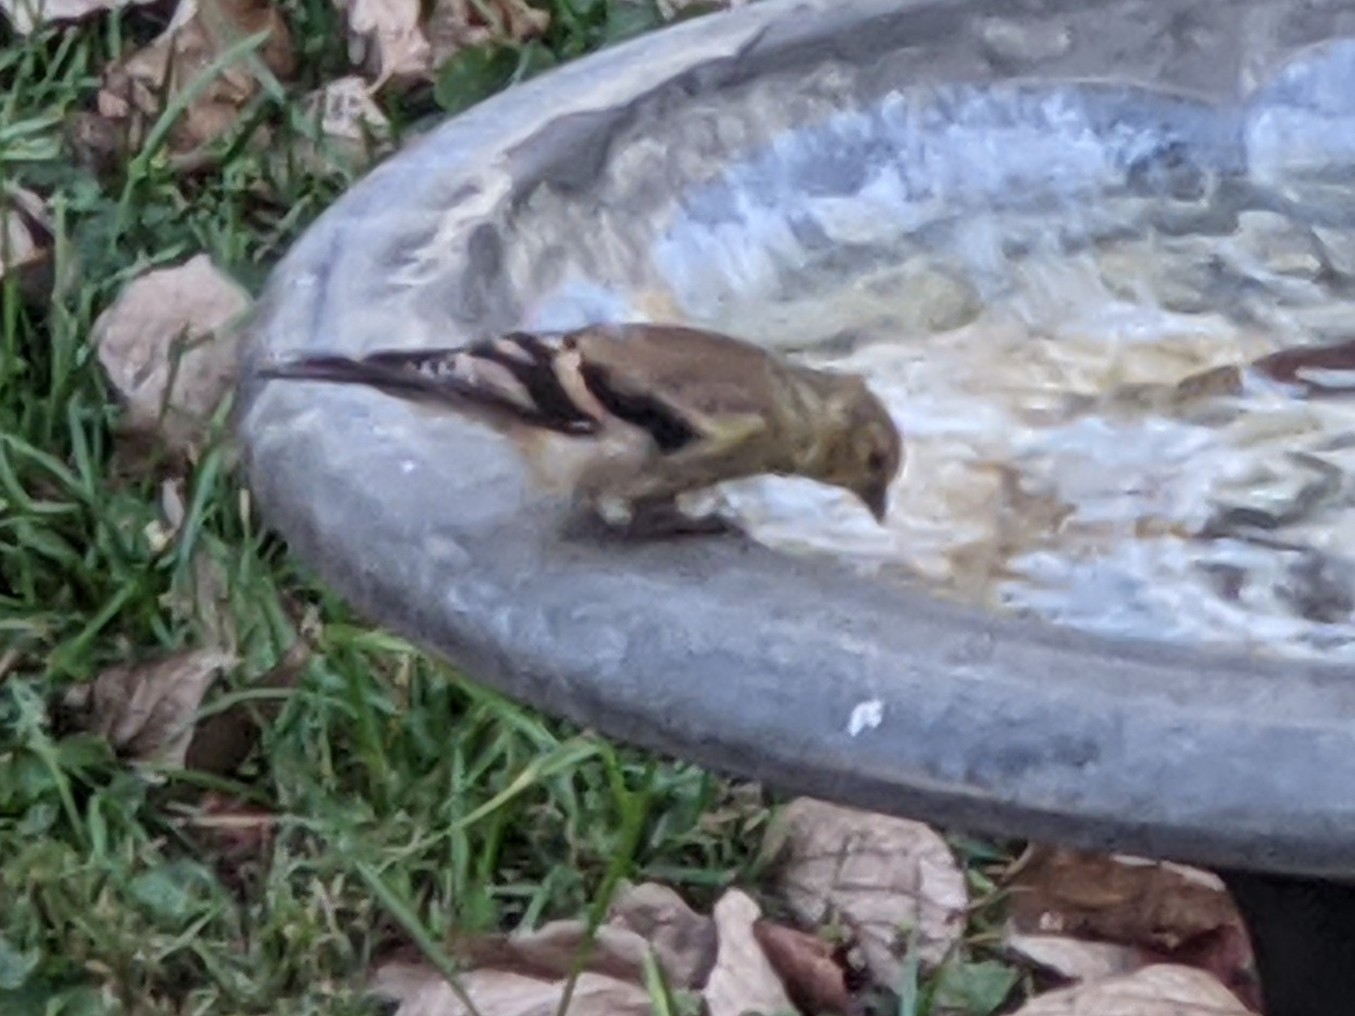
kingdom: Animalia
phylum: Chordata
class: Aves
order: Passeriformes
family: Fringillidae
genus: Spinus
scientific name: Spinus tristis
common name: American goldfinch
